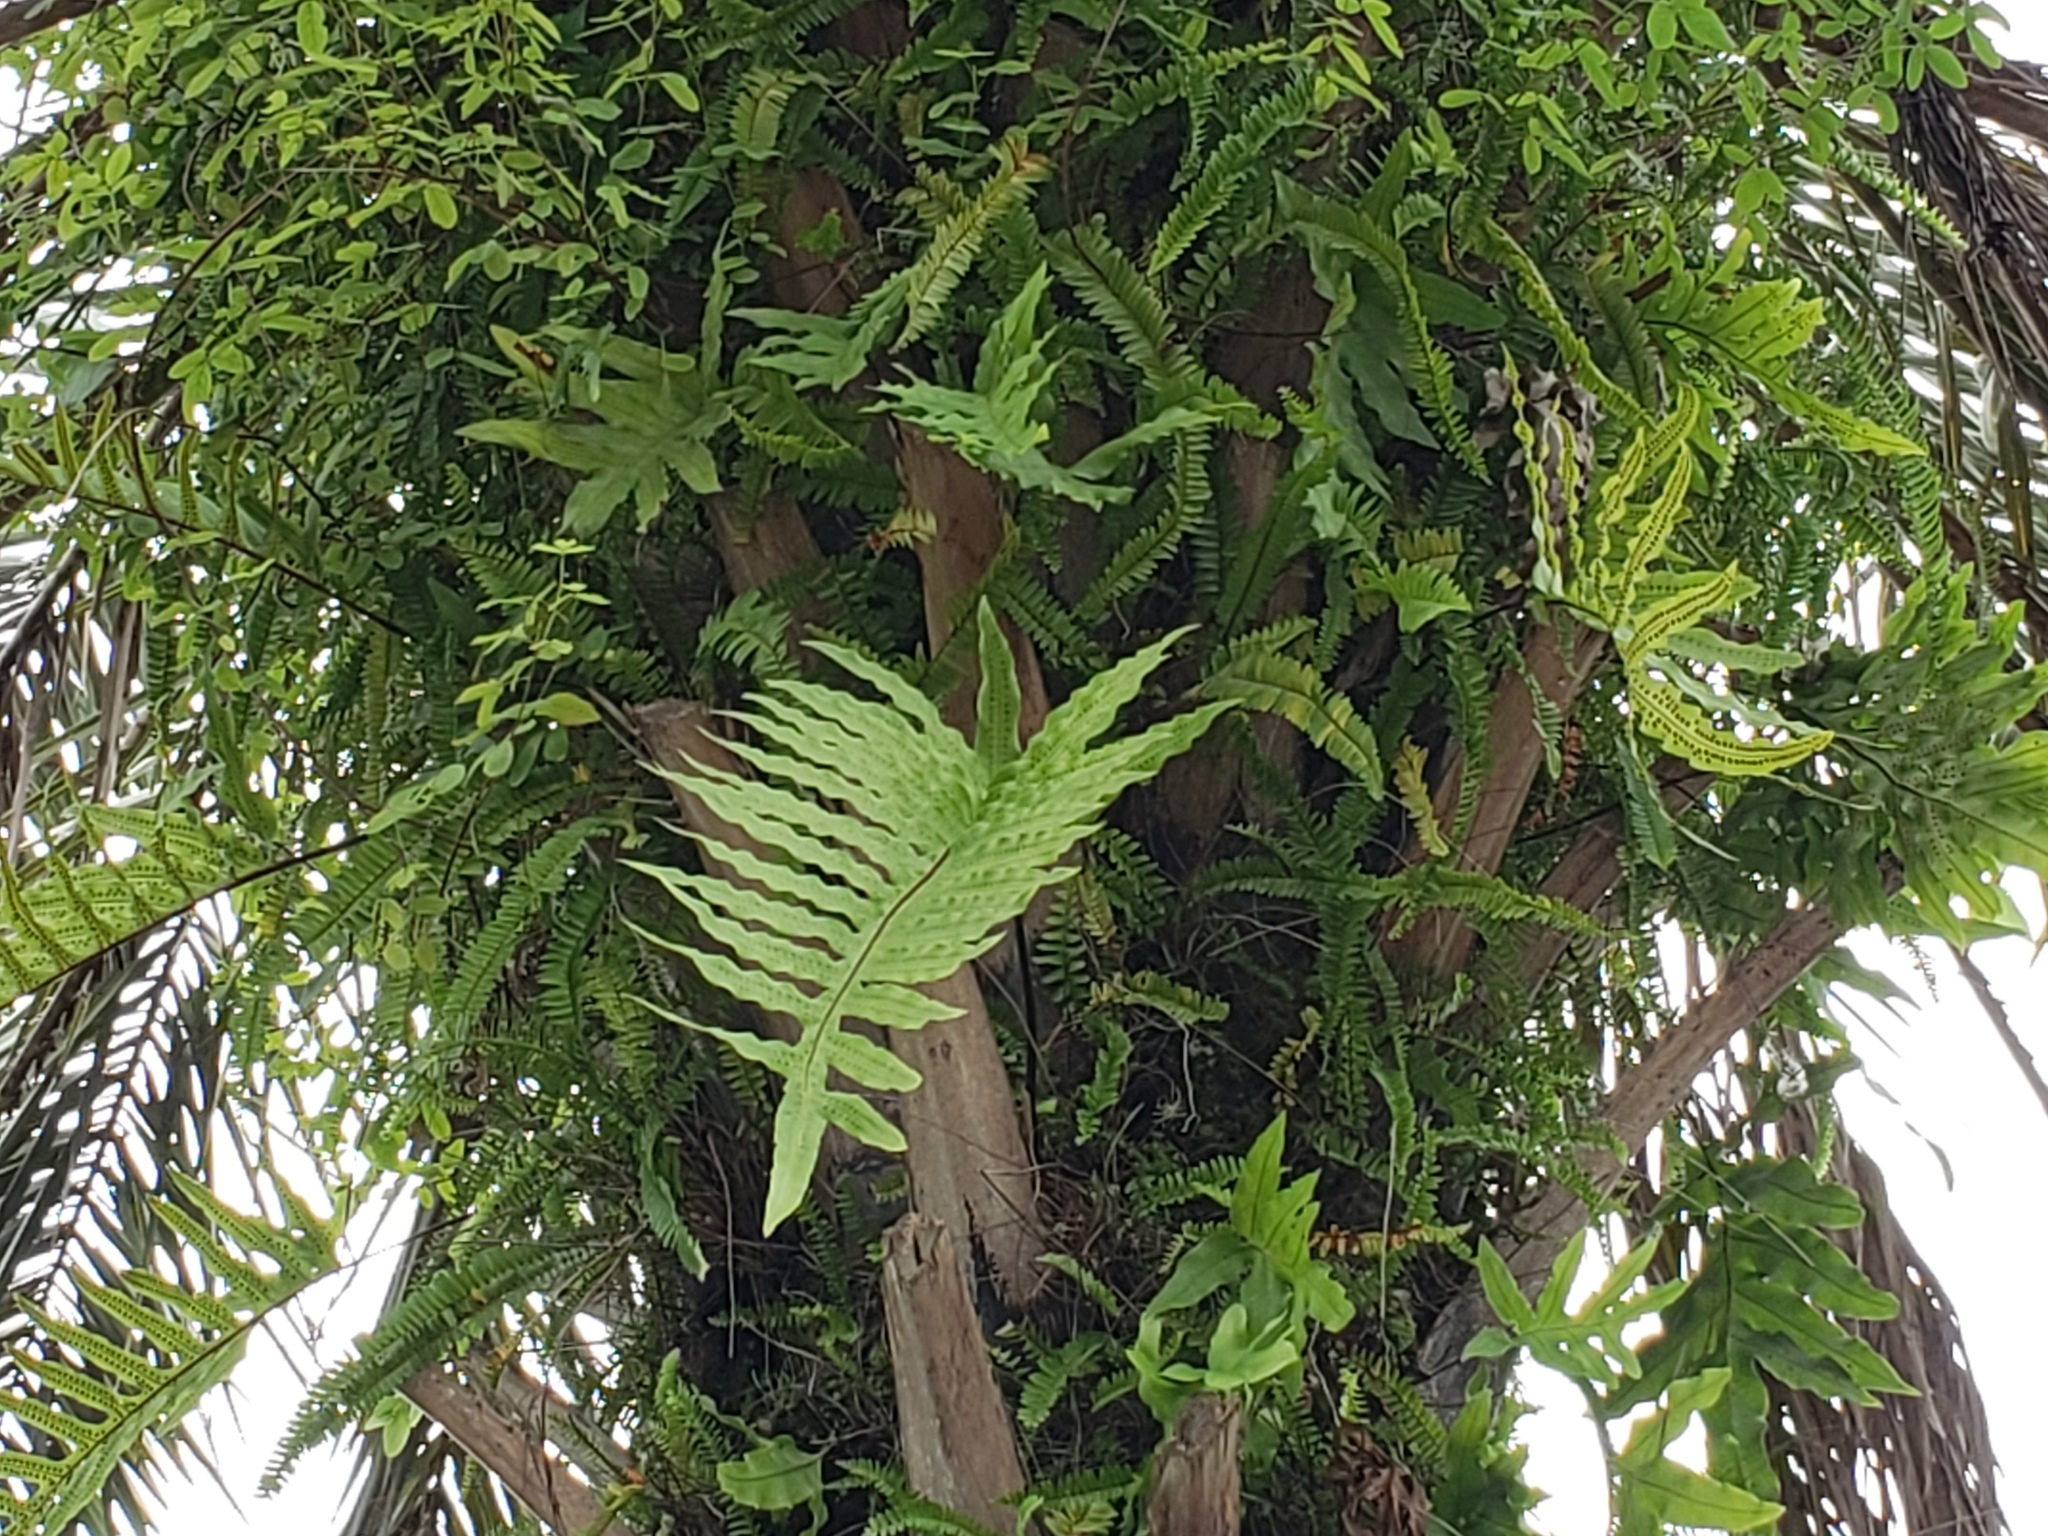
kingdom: Plantae
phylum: Tracheophyta
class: Polypodiopsida
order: Polypodiales
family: Polypodiaceae
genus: Phlebodium
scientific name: Phlebodium aureum
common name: Gold-foot fern
